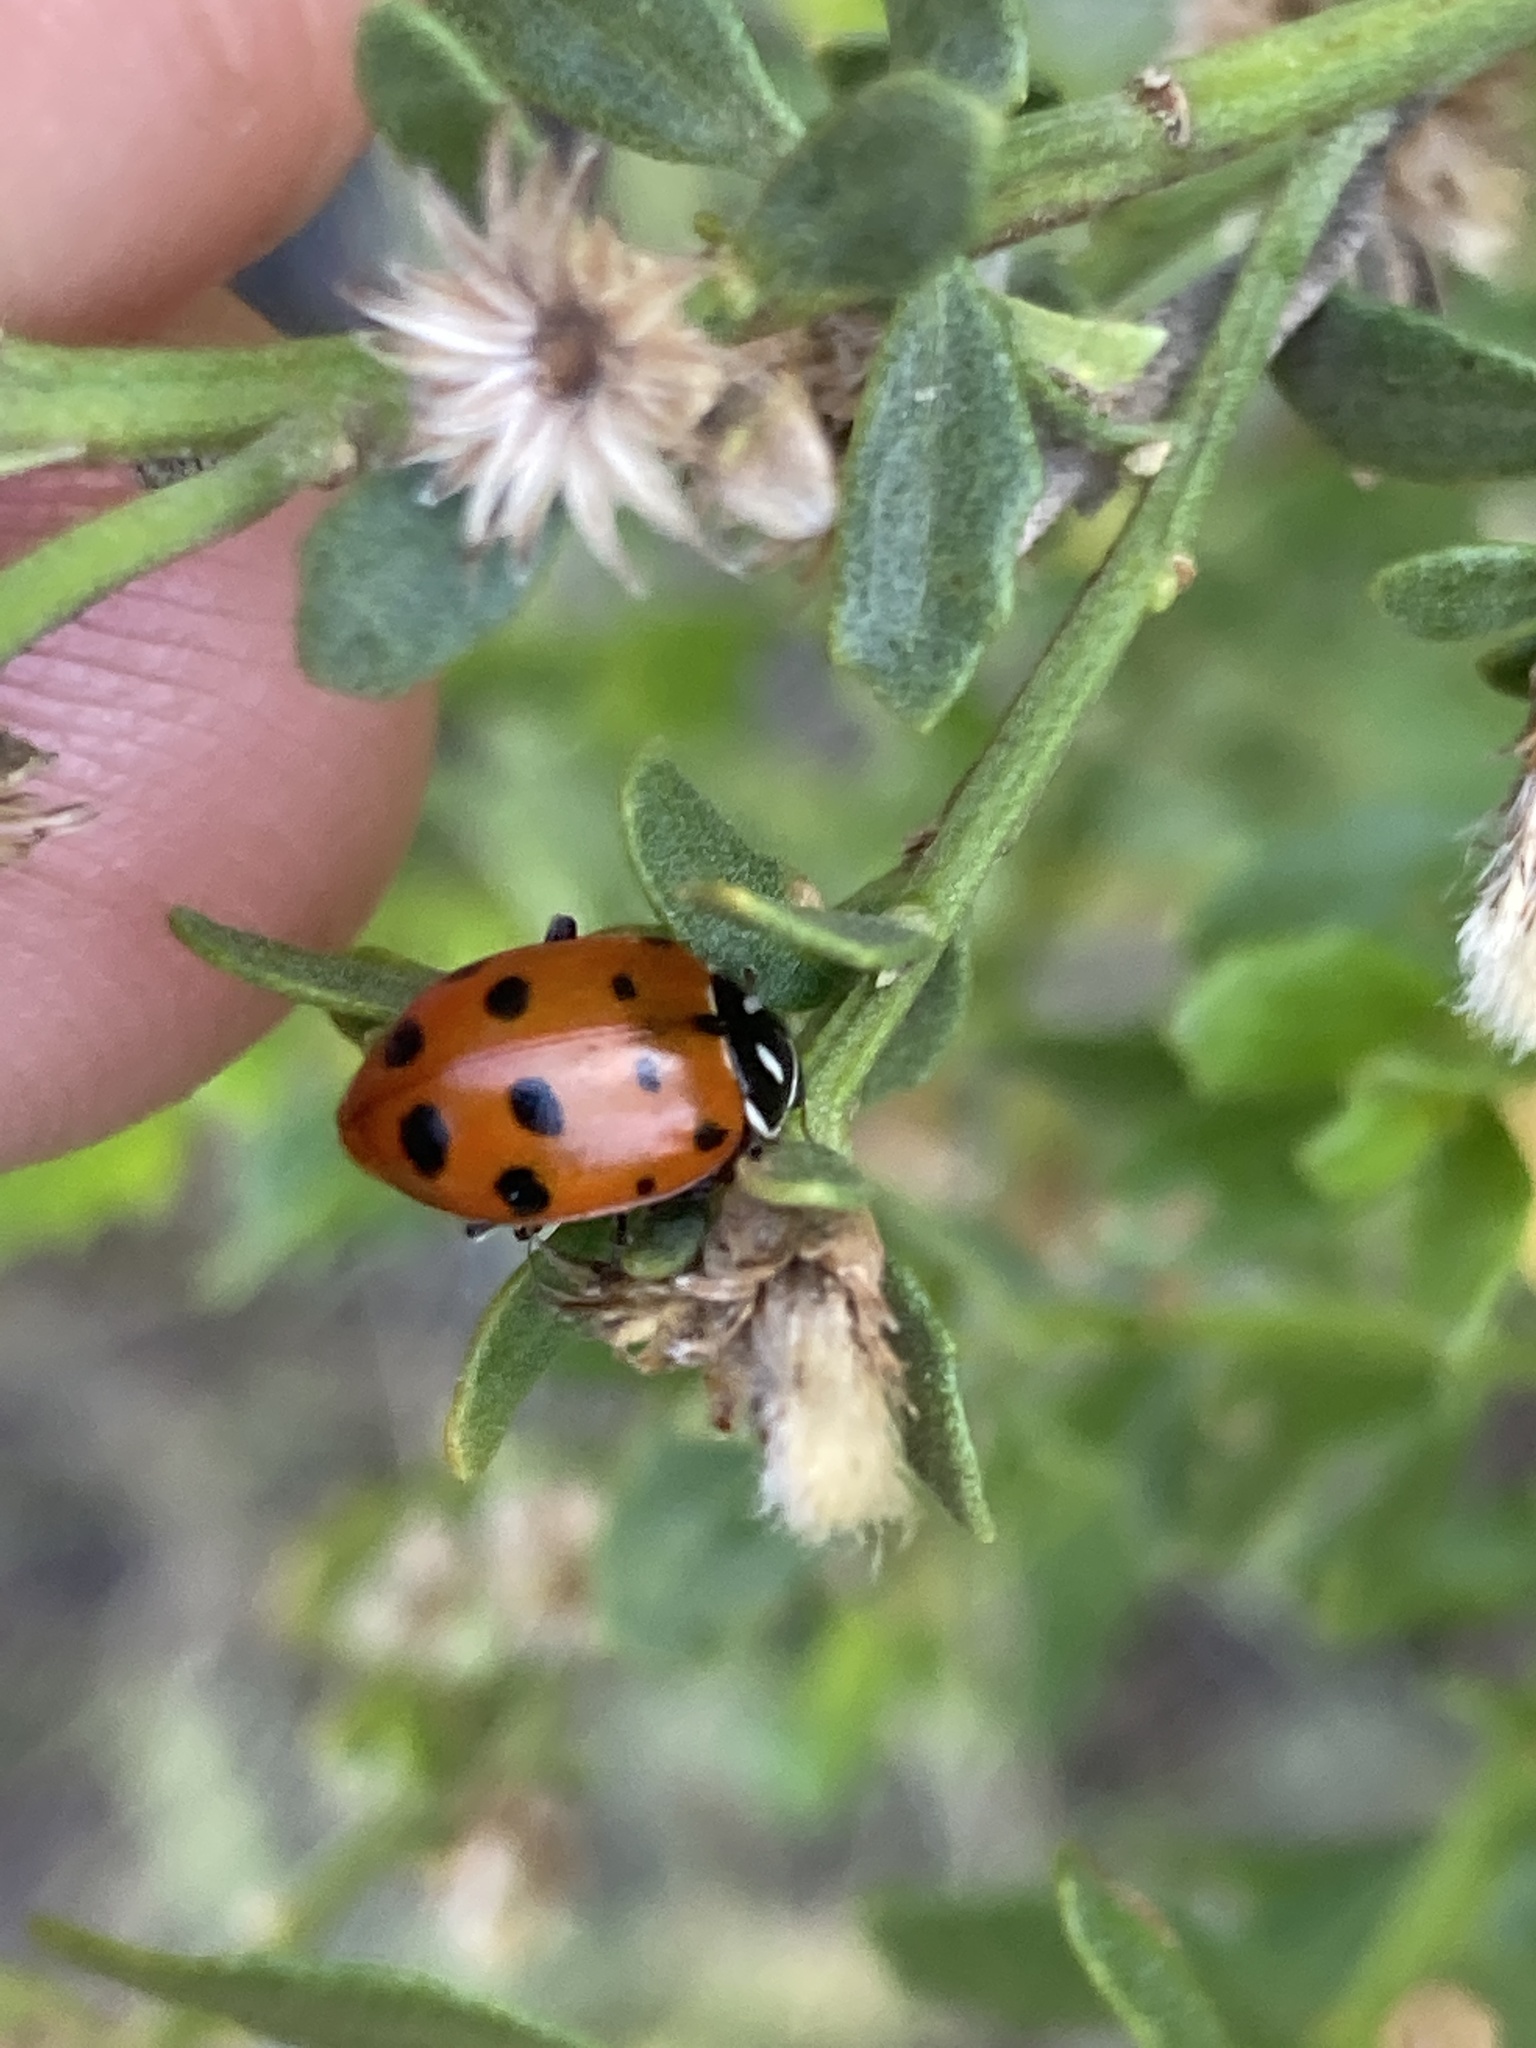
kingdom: Animalia
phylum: Arthropoda
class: Insecta
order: Coleoptera
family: Coccinellidae
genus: Hippodamia
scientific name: Hippodamia convergens
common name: Convergent lady beetle
